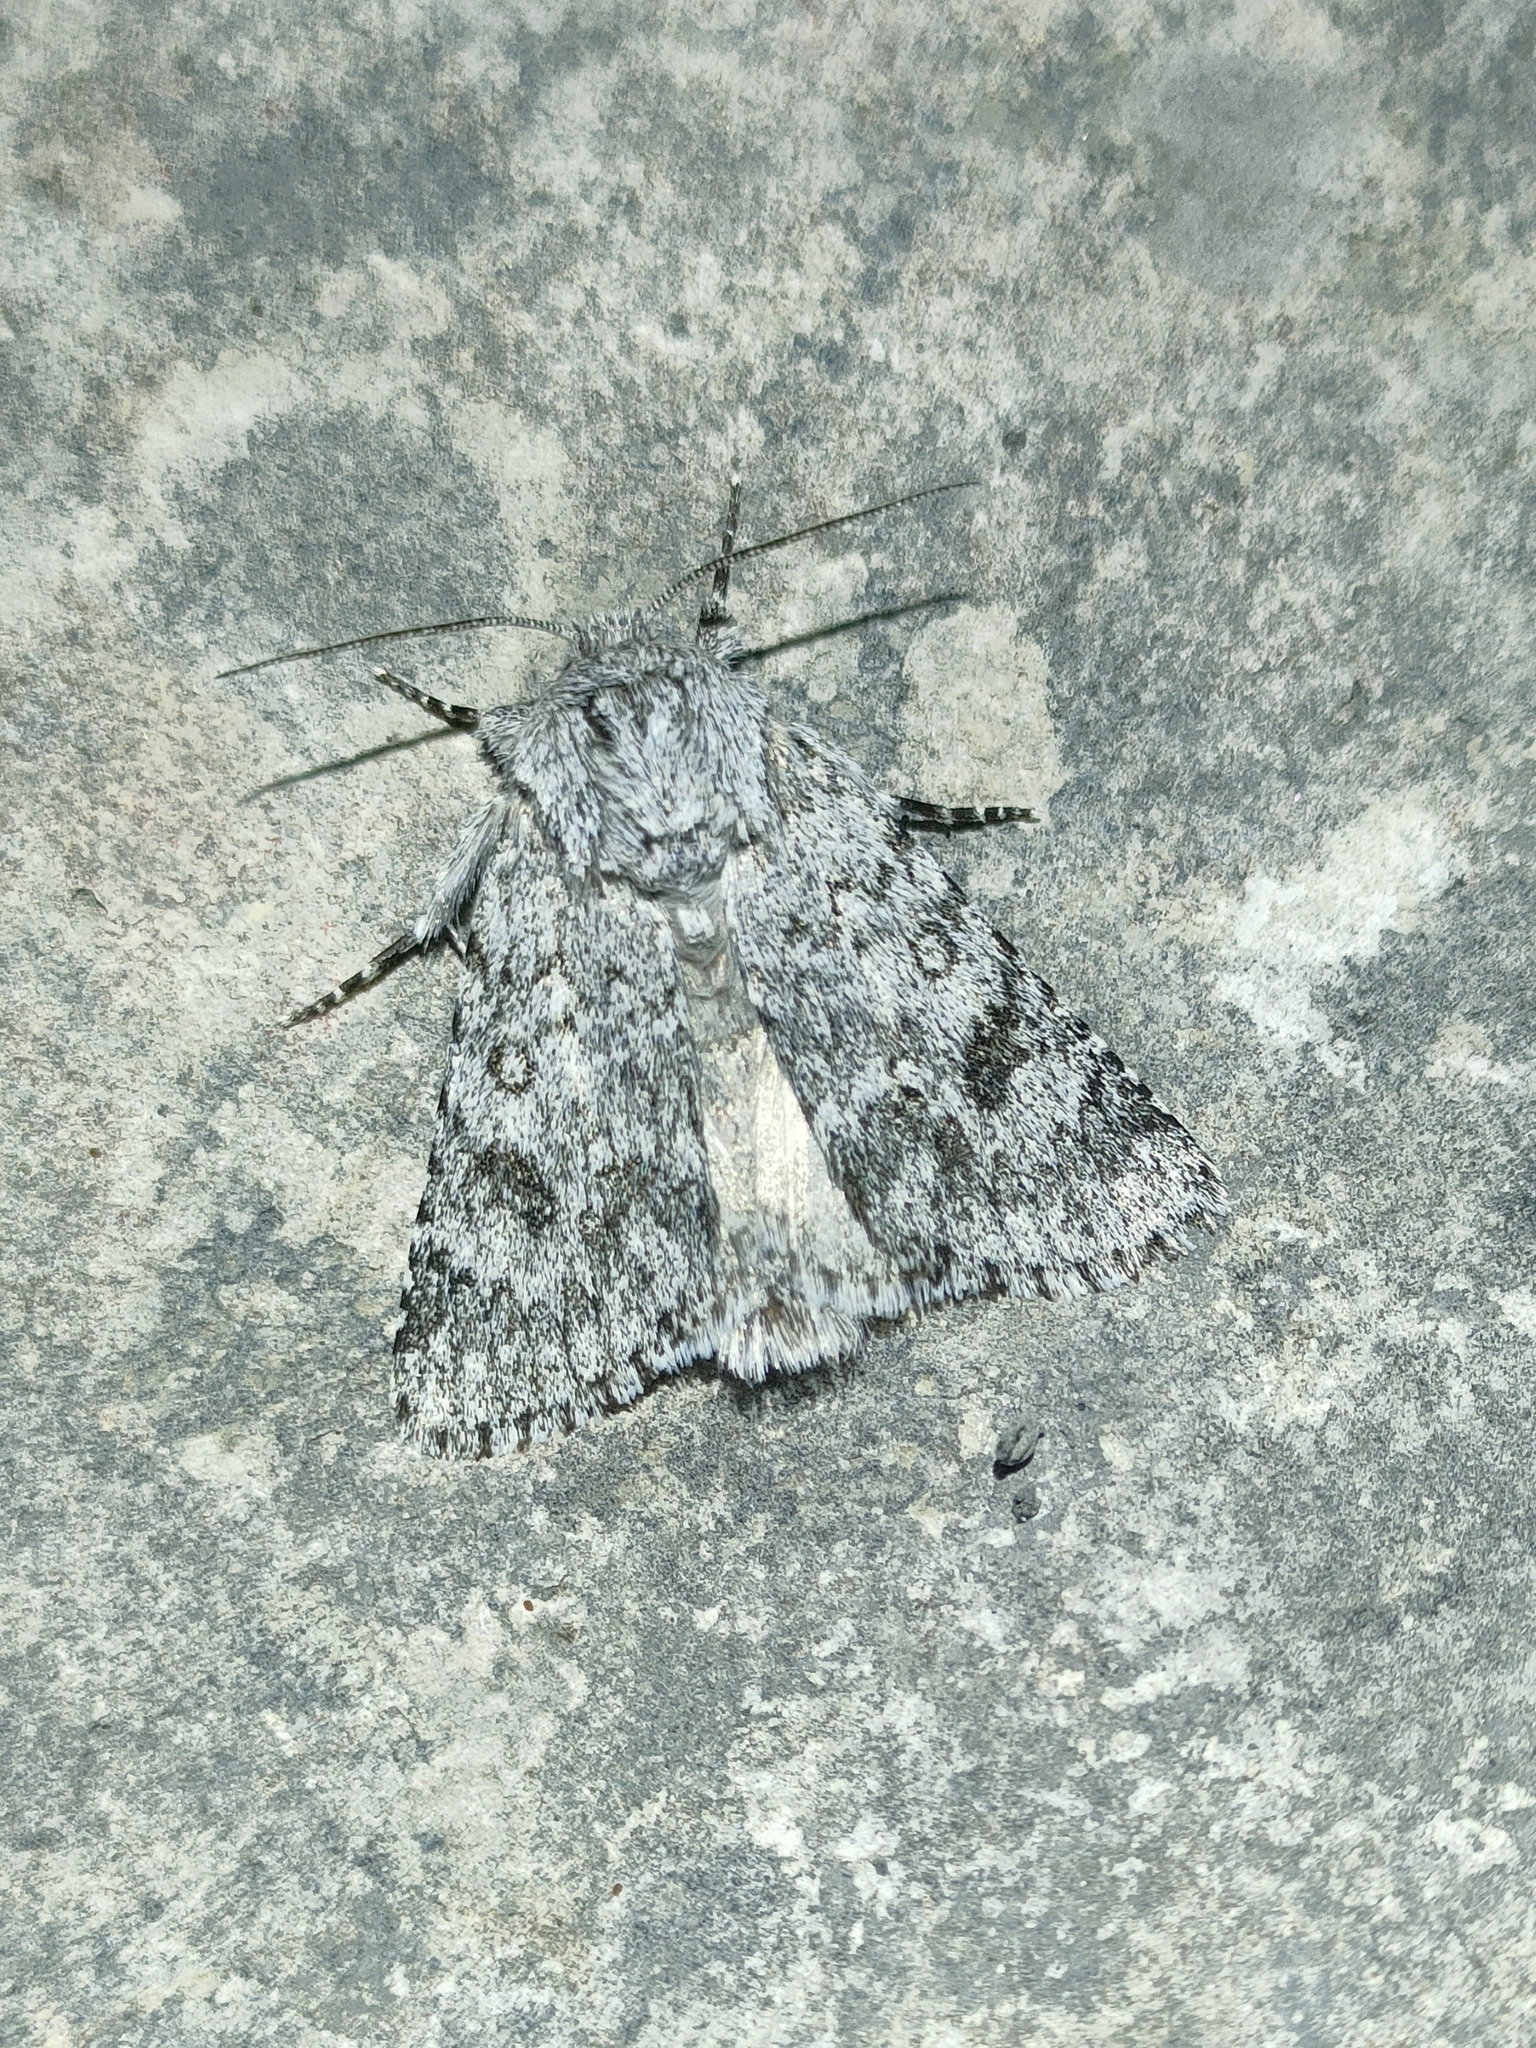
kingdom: Animalia
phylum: Arthropoda
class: Insecta
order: Lepidoptera
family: Noctuidae
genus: Acronicta
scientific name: Acronicta euphorbiae
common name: Sweet gale moth
